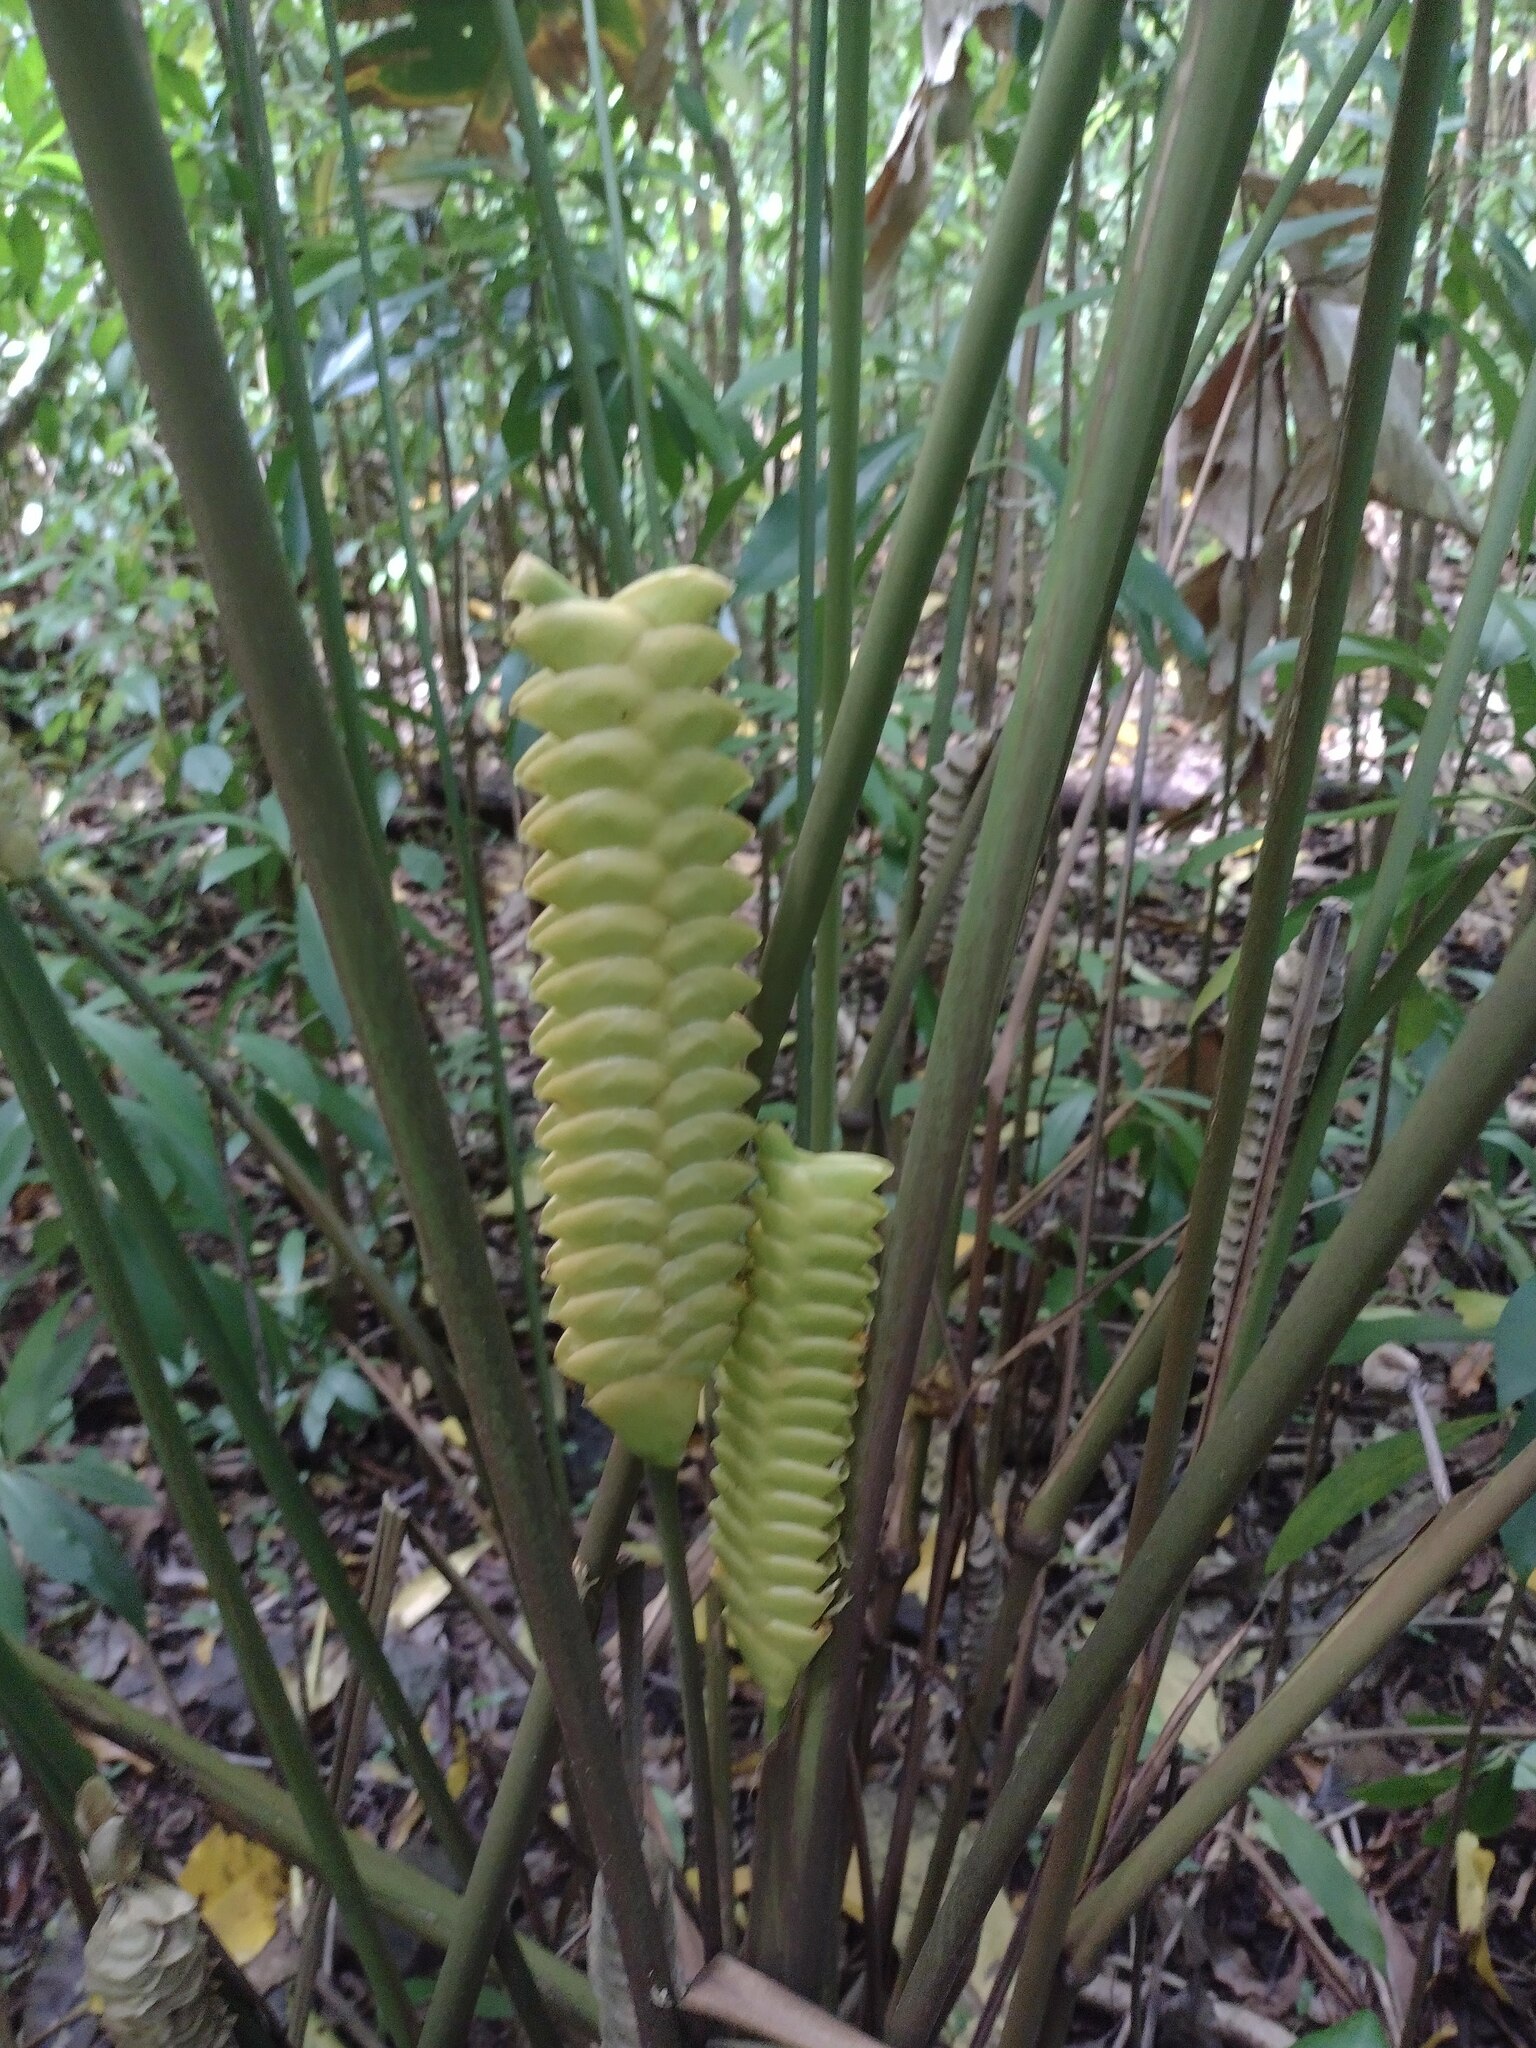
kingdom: Plantae
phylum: Tracheophyta
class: Liliopsida
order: Zingiberales
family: Marantaceae
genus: Calathea
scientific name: Calathea crotalifera
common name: Rattlesnake plant
